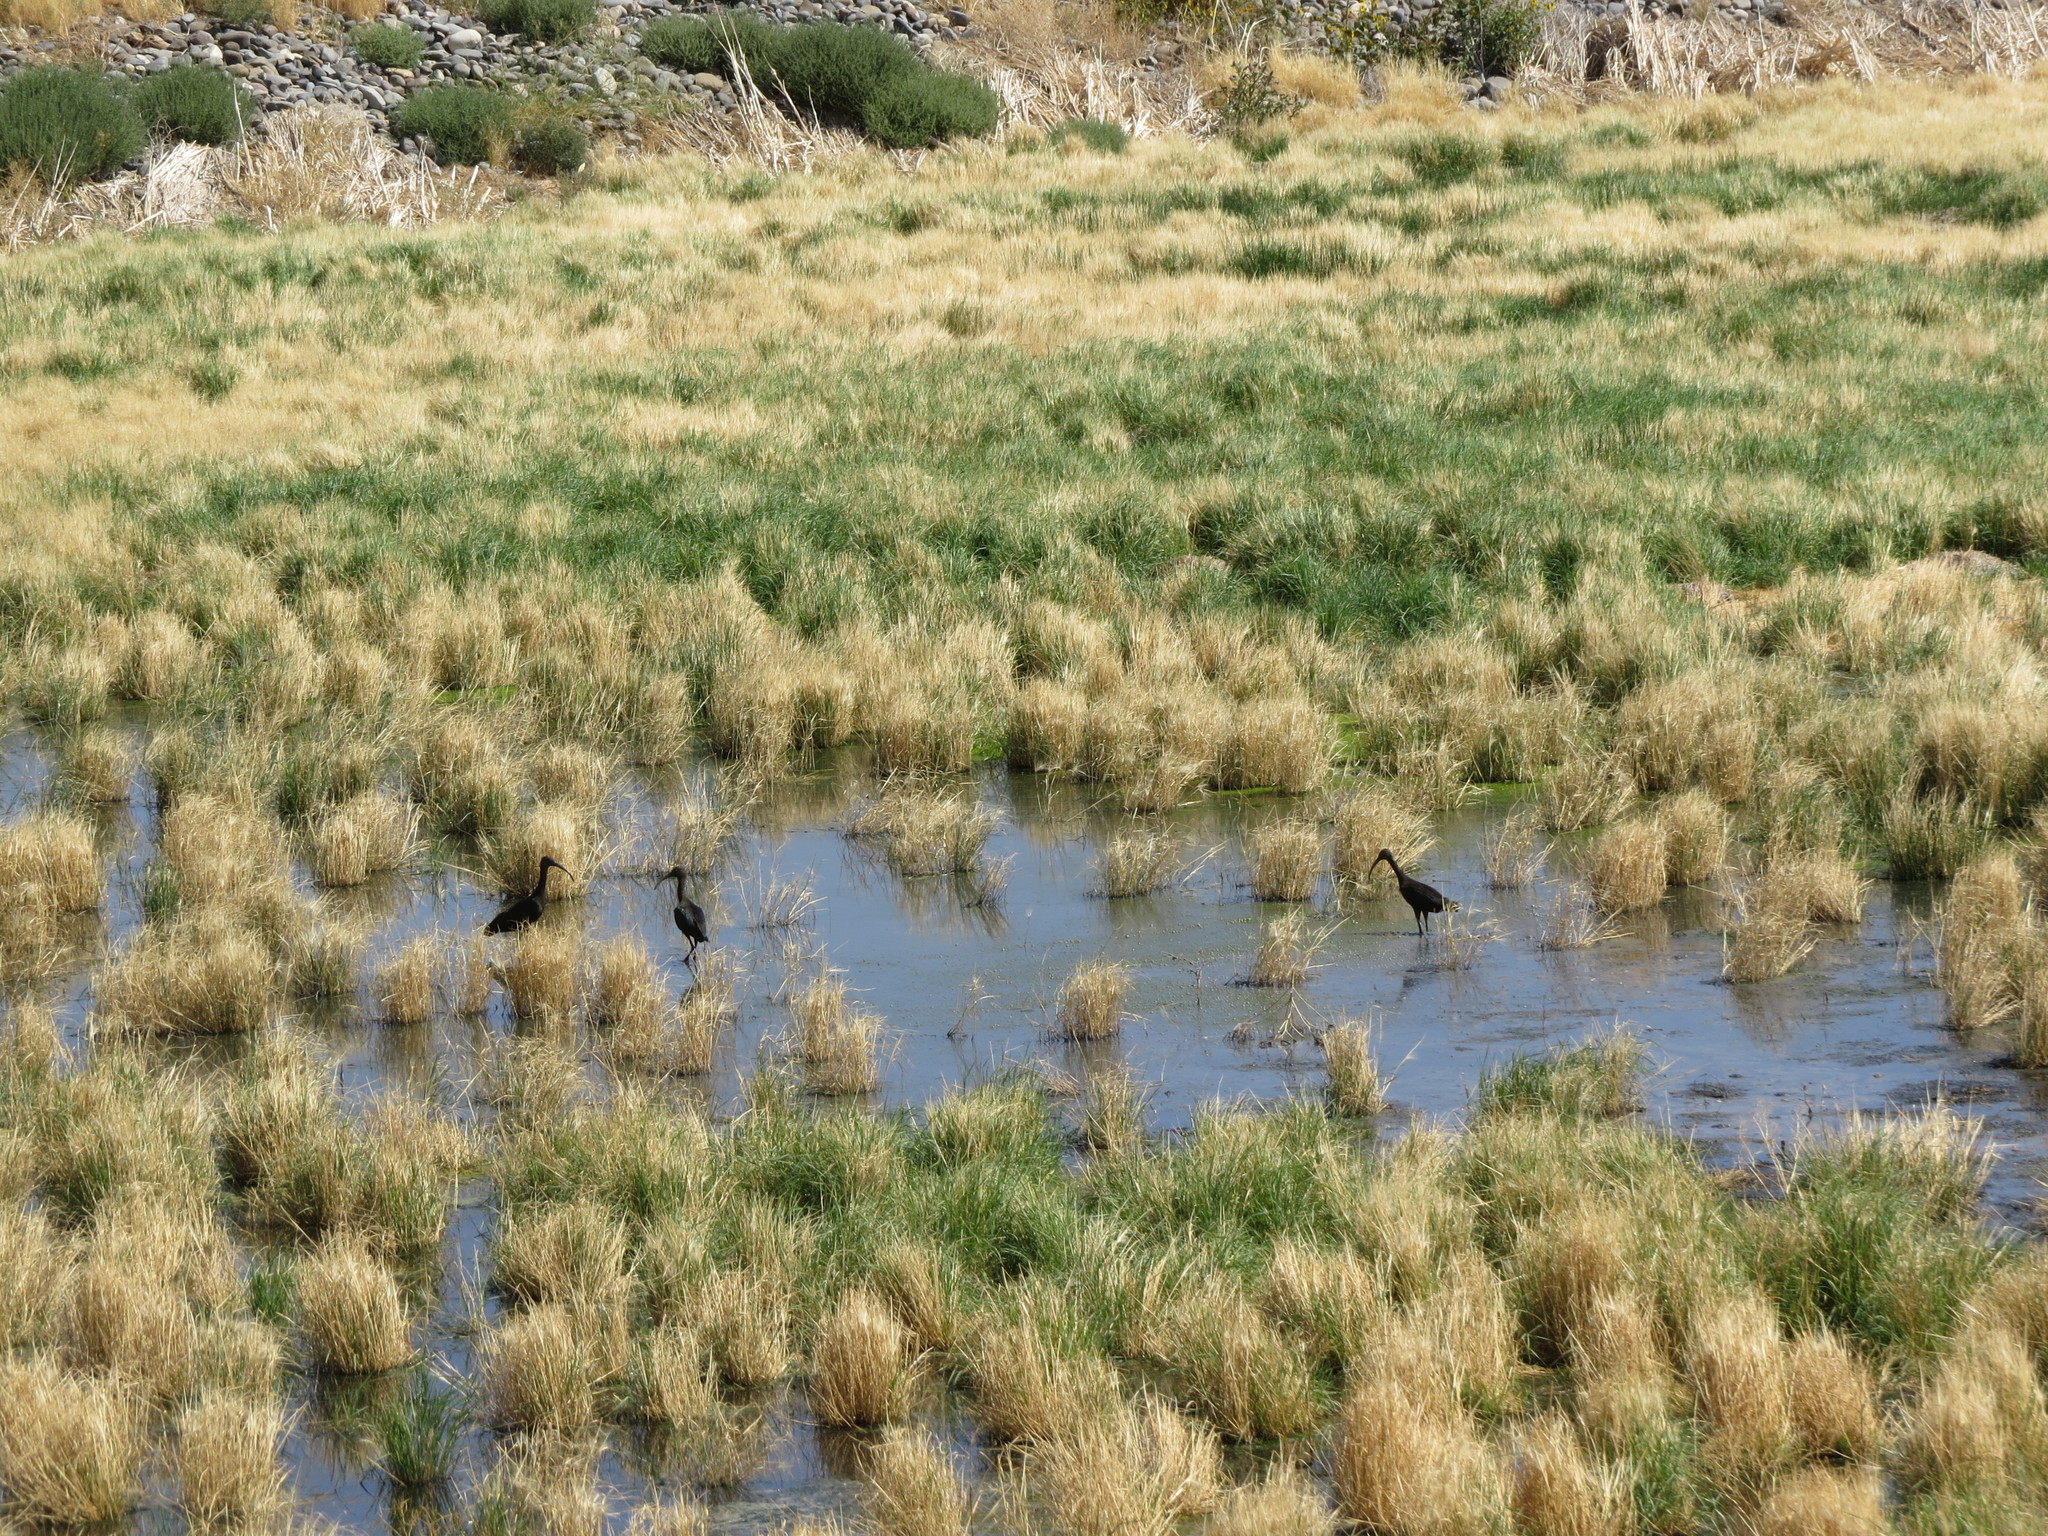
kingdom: Animalia
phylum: Chordata
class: Aves
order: Pelecaniformes
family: Threskiornithidae
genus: Plegadis
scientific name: Plegadis chihi
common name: White-faced ibis
